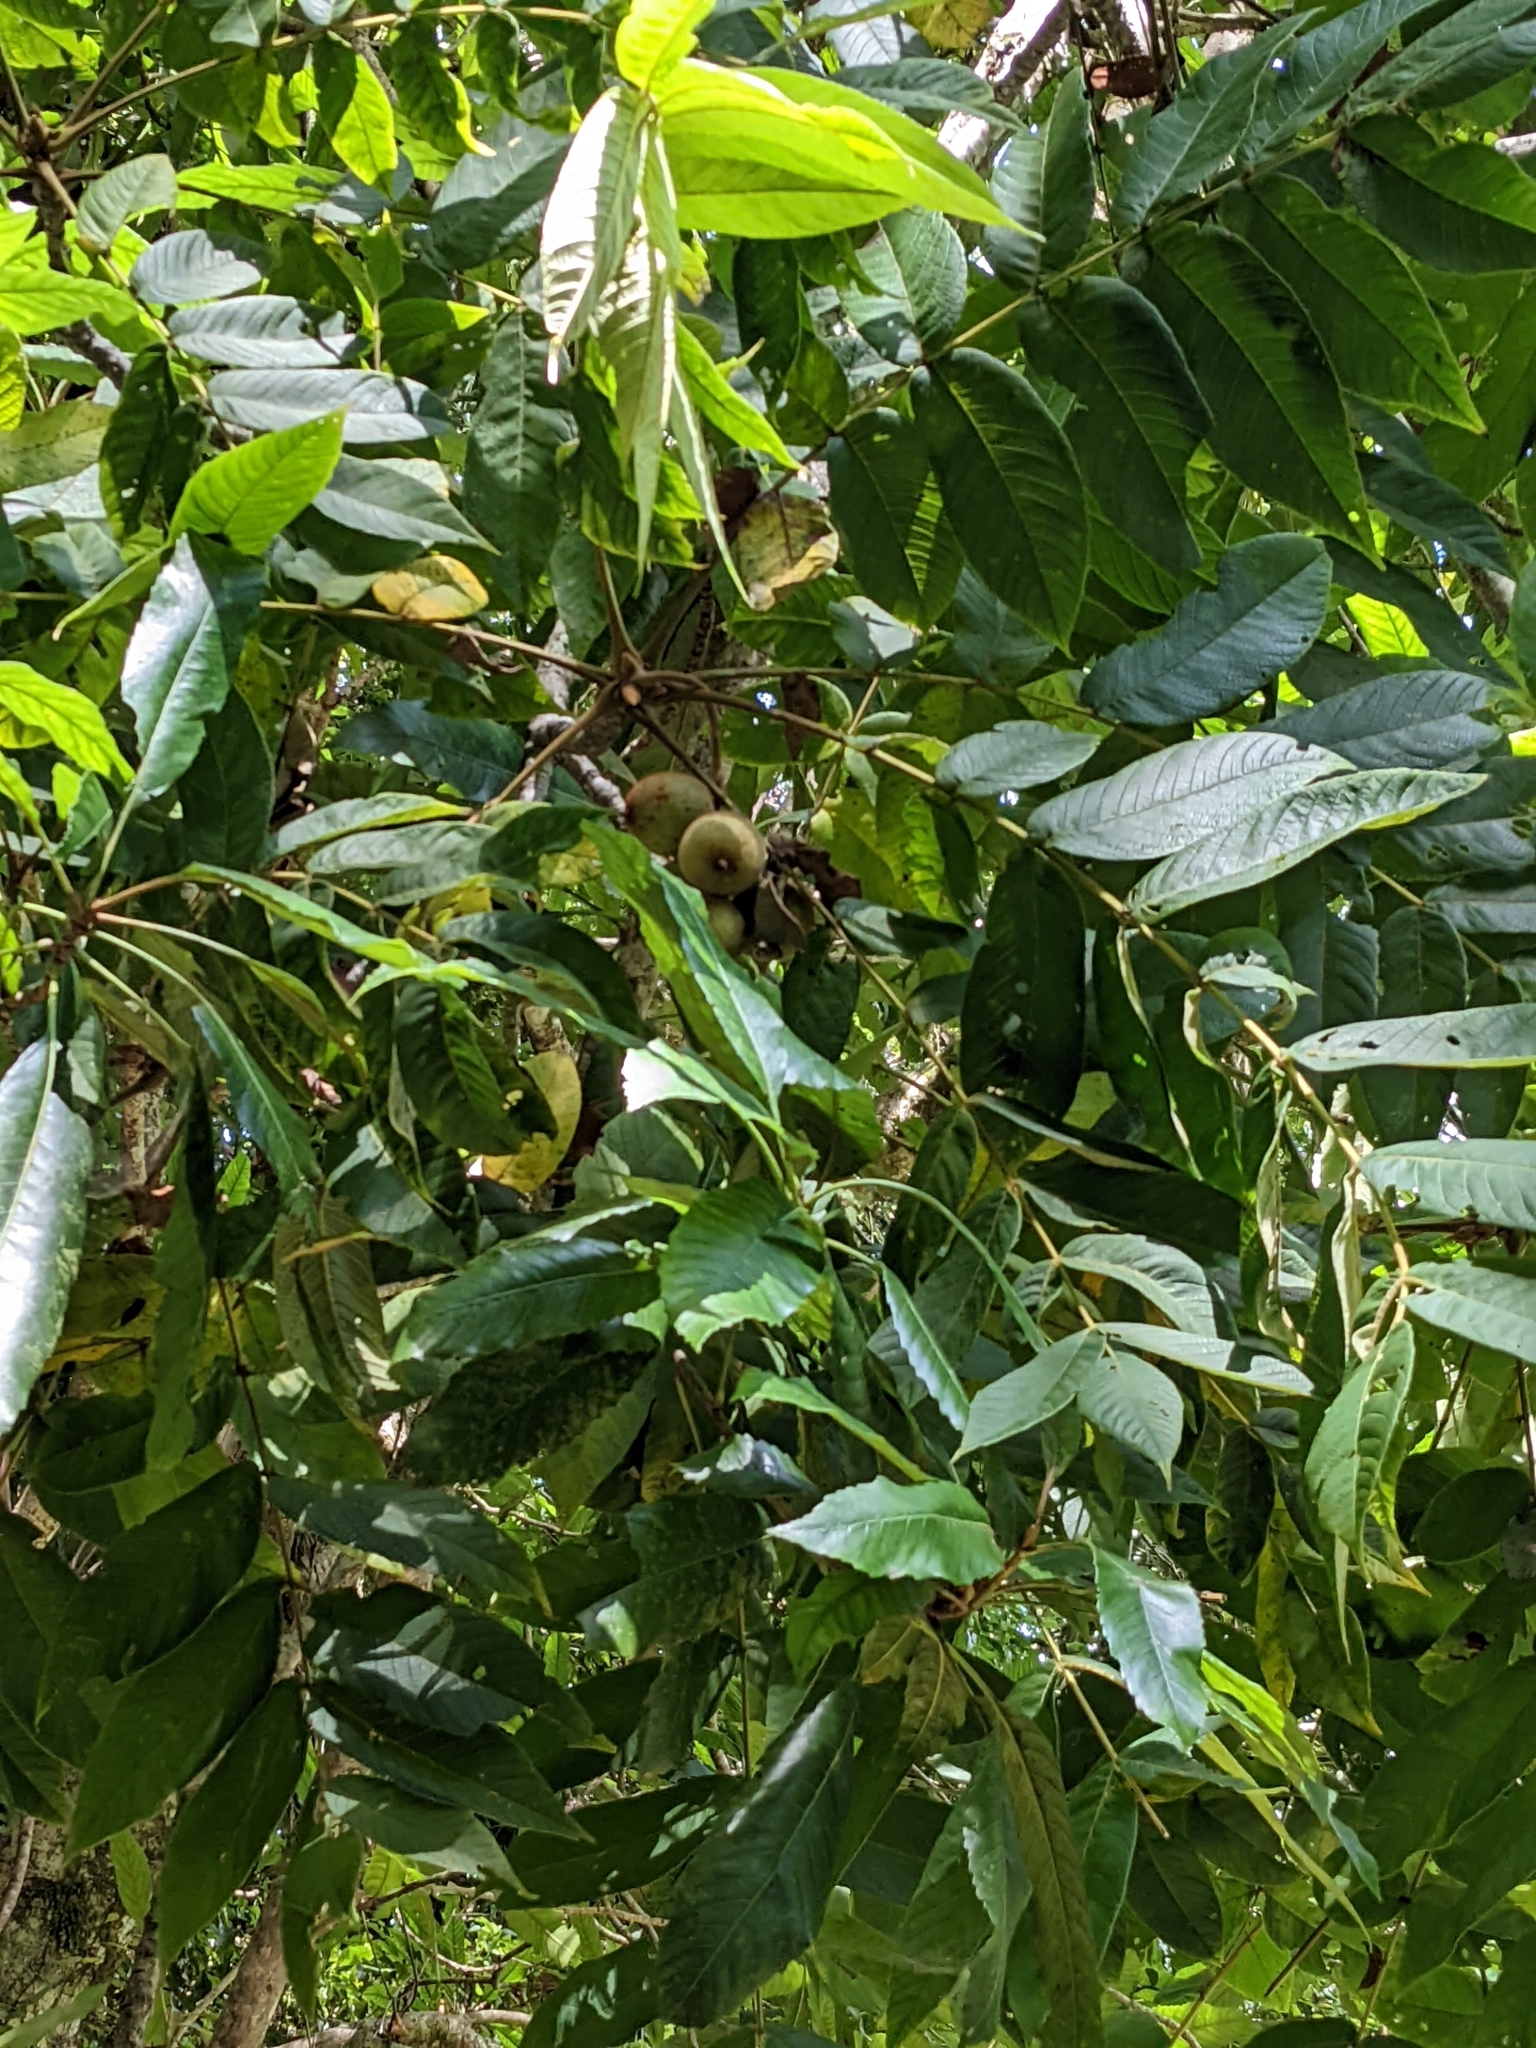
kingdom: Plantae
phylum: Tracheophyta
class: Magnoliopsida
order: Fagales
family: Juglandaceae
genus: Juglans
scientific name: Juglans mandshurica
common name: Manchurian walnut
